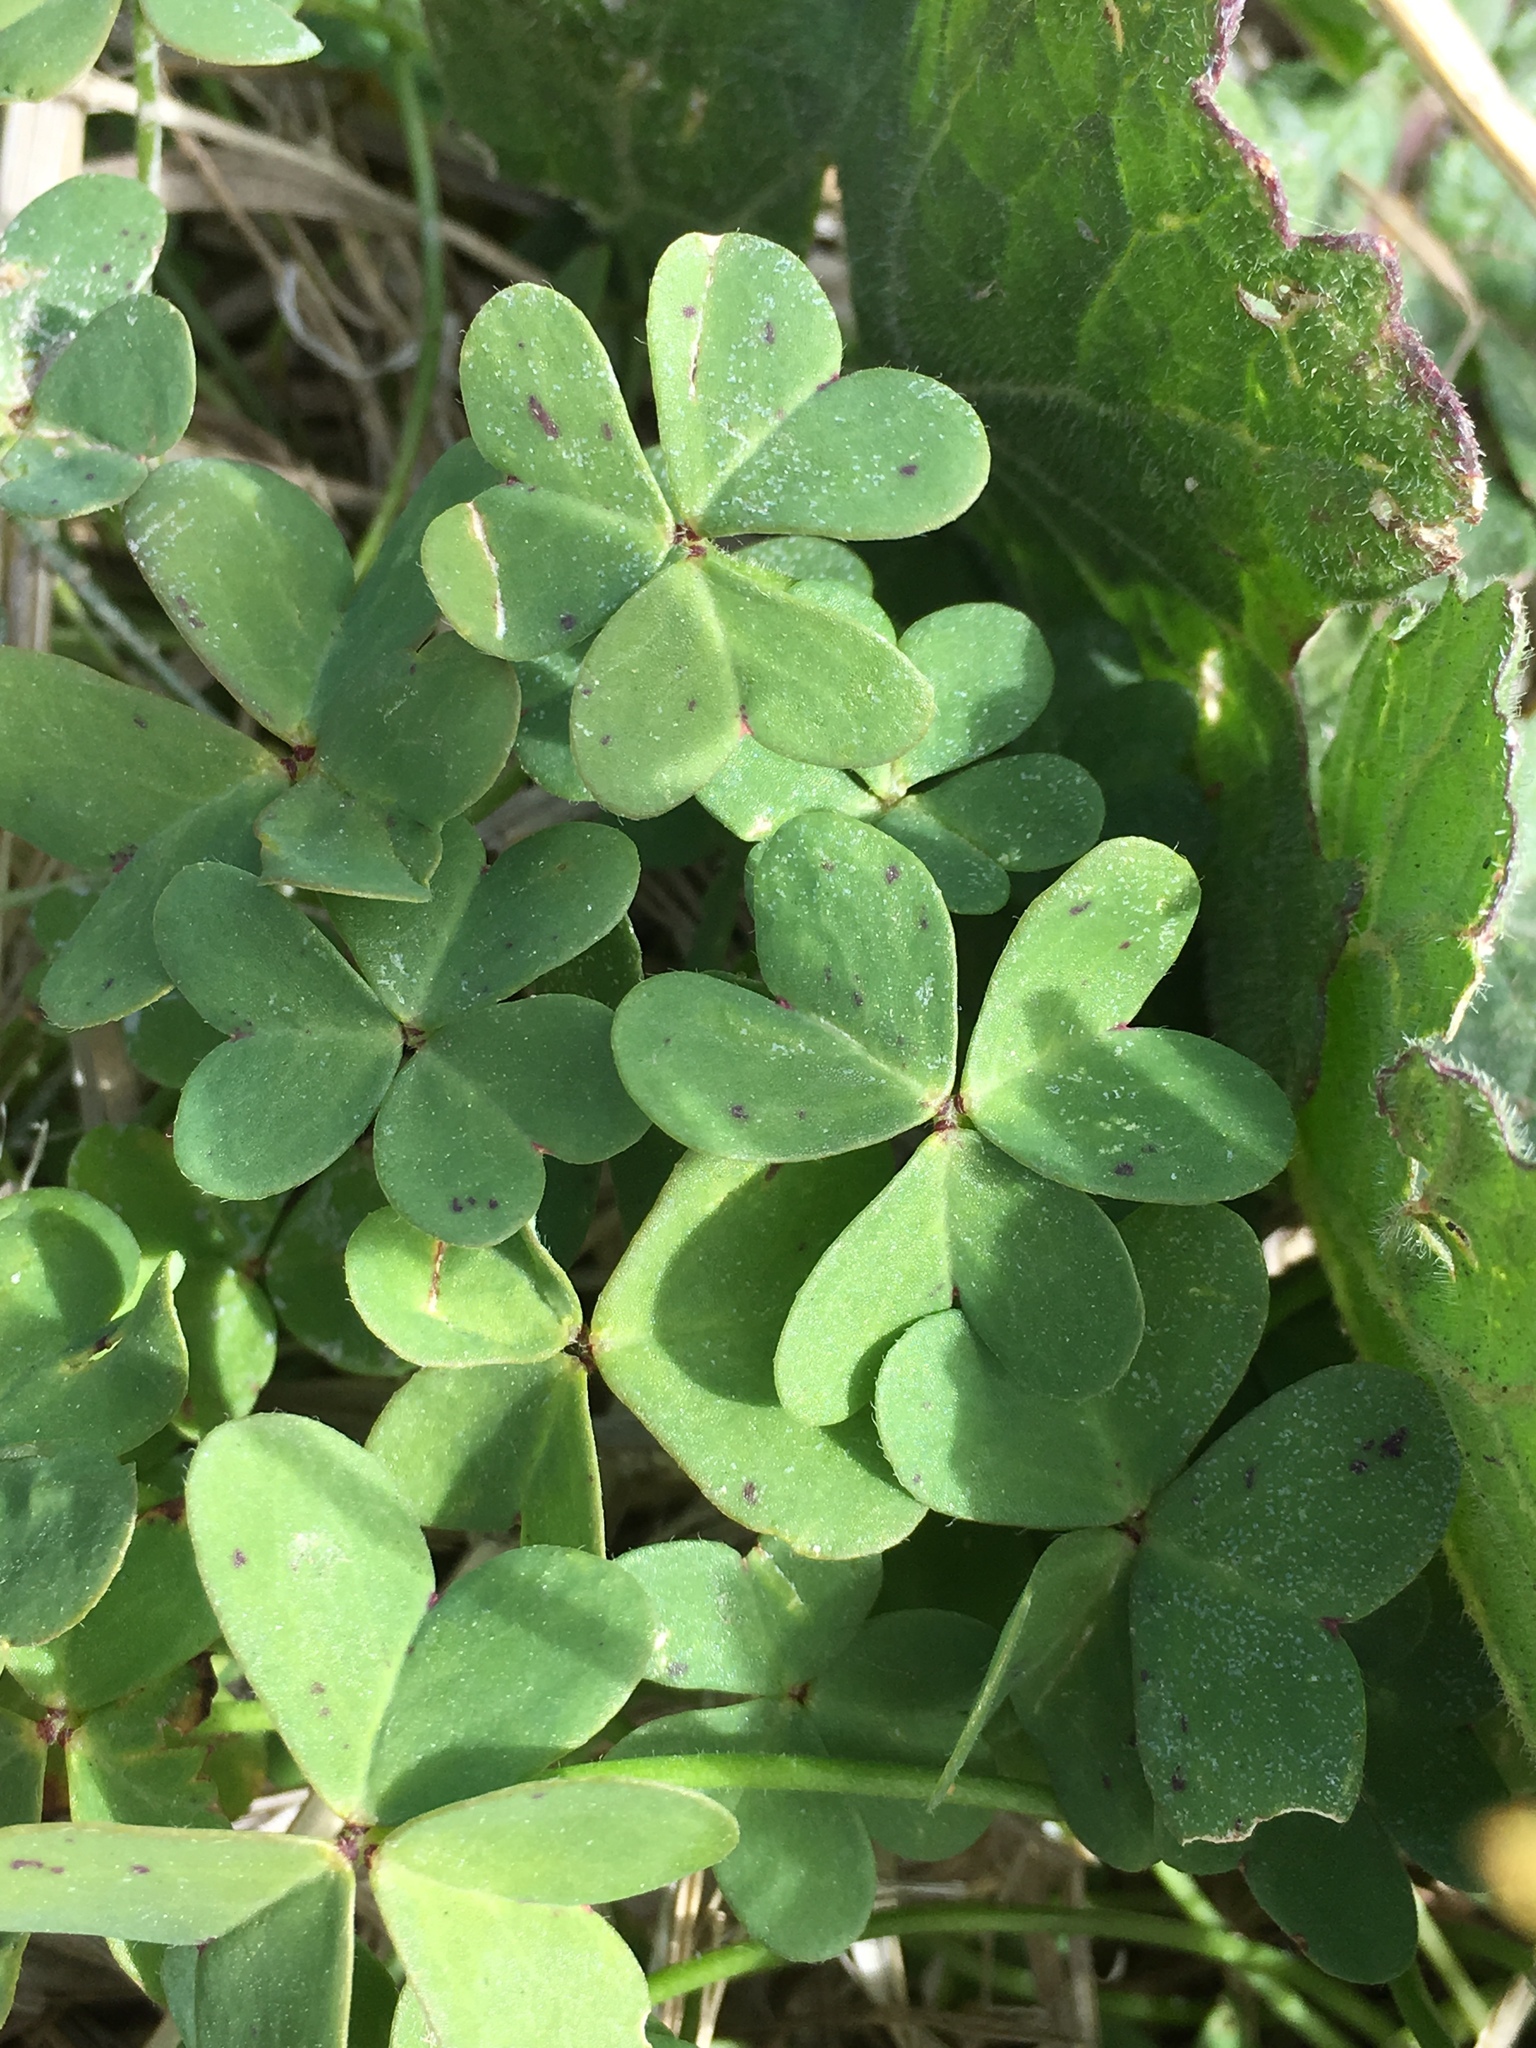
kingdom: Plantae
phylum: Tracheophyta
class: Magnoliopsida
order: Oxalidales
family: Oxalidaceae
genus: Oxalis
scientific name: Oxalis pes-caprae
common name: Bermuda-buttercup
